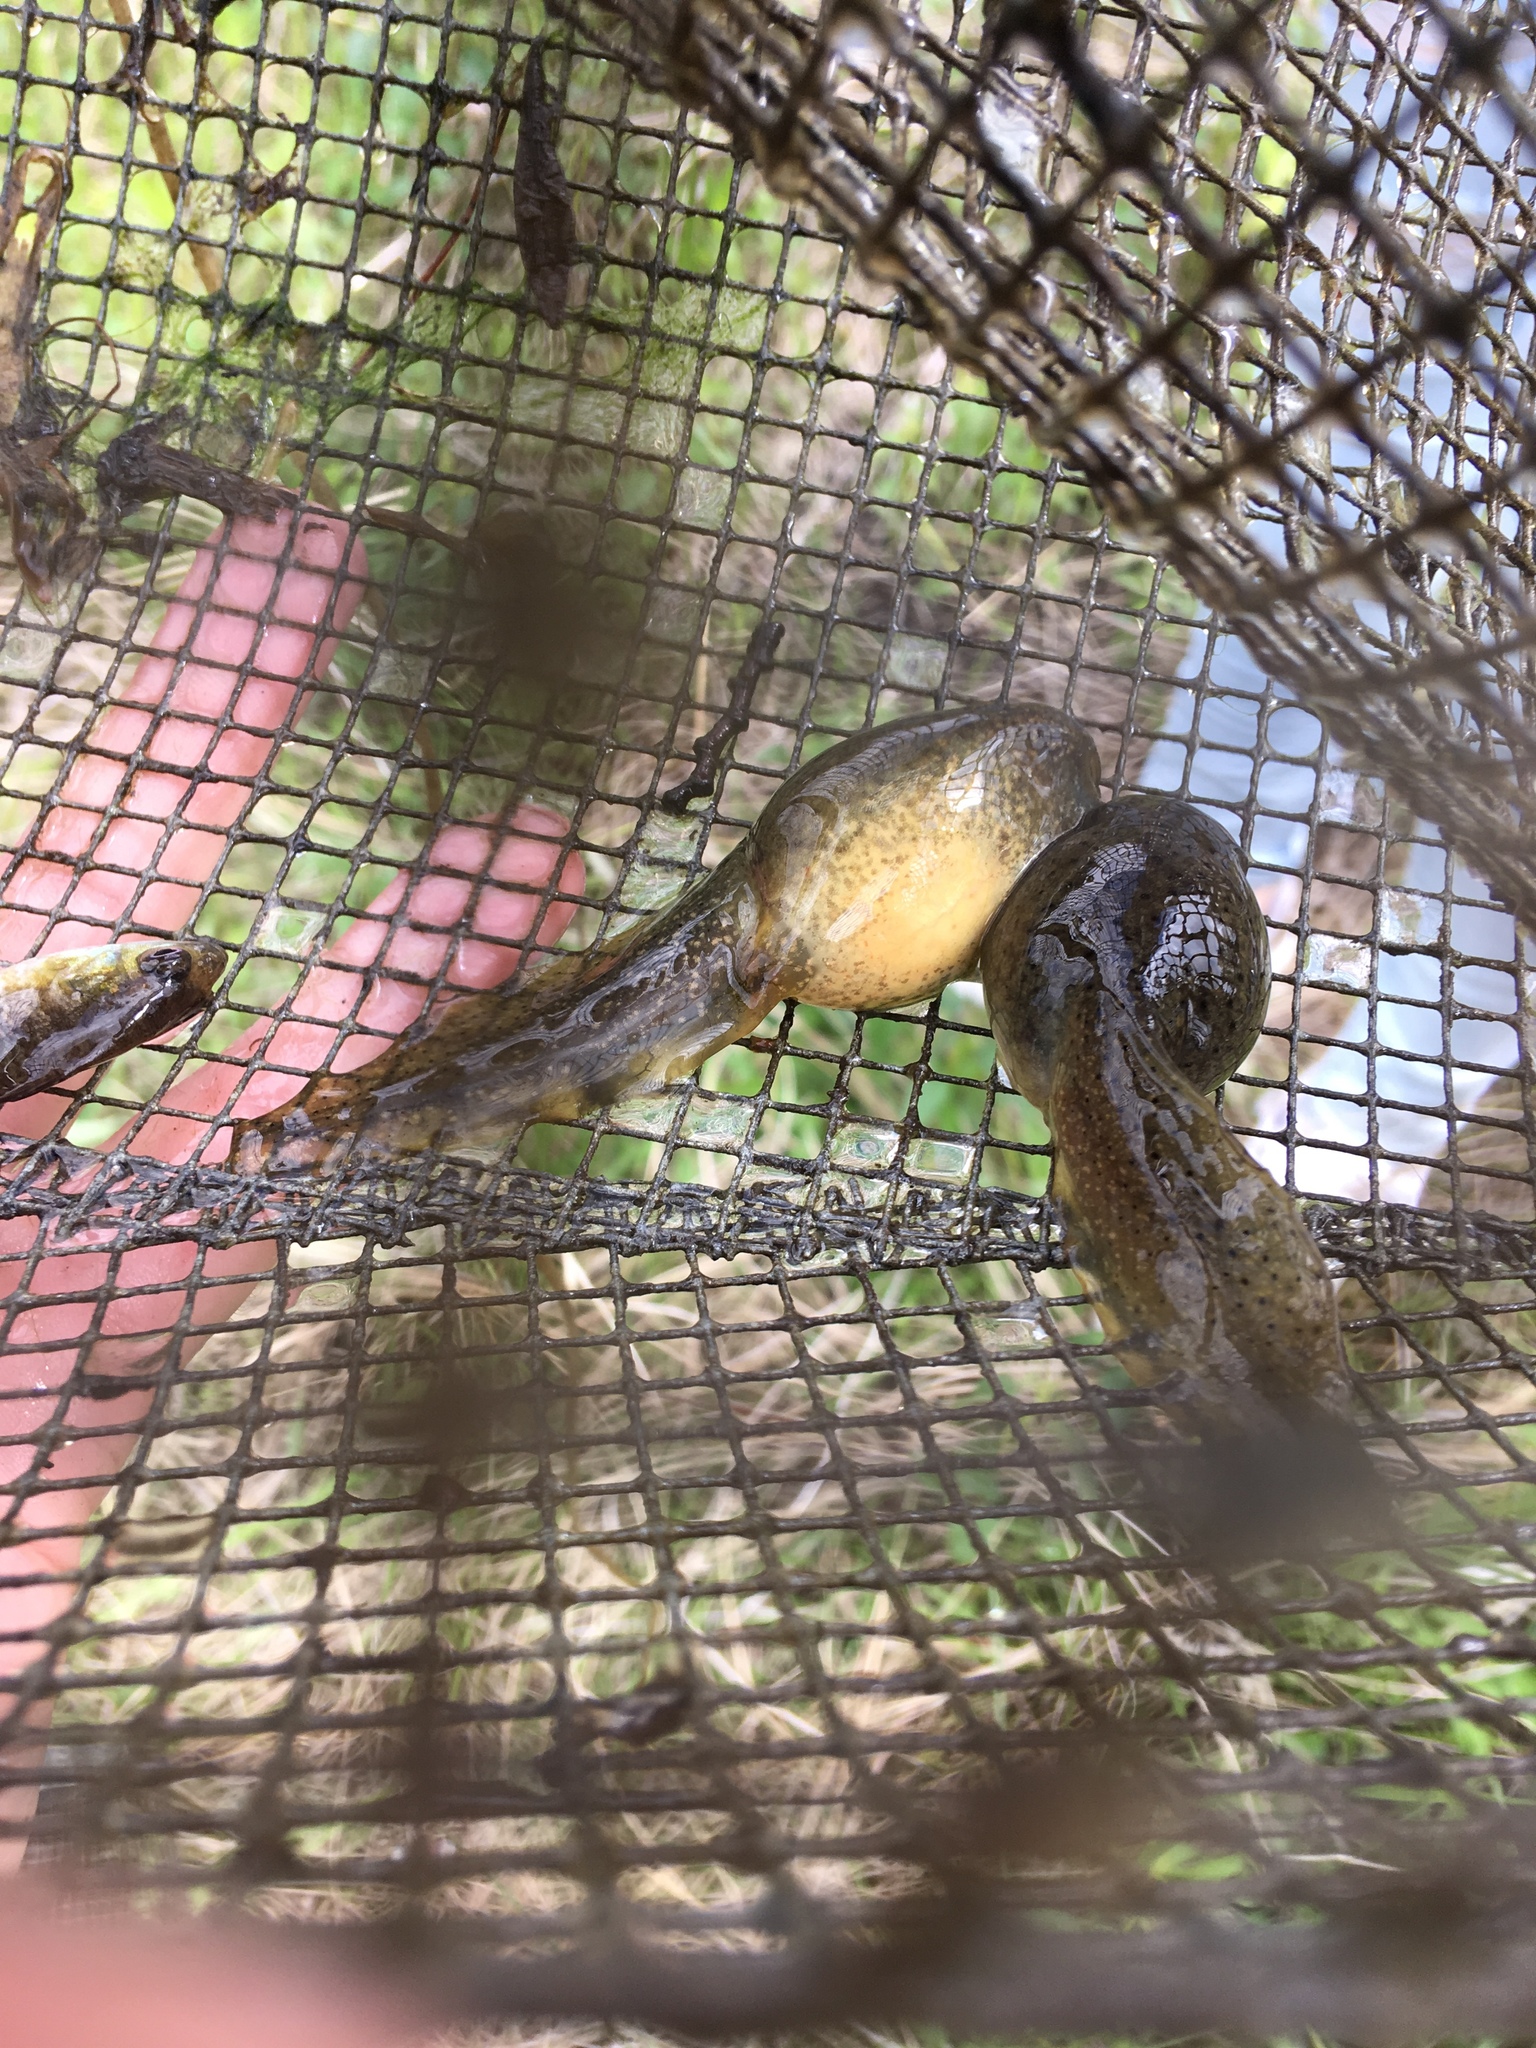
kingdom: Animalia
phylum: Chordata
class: Amphibia
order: Anura
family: Ranidae
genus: Lithobates
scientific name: Lithobates catesbeianus
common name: American bullfrog
